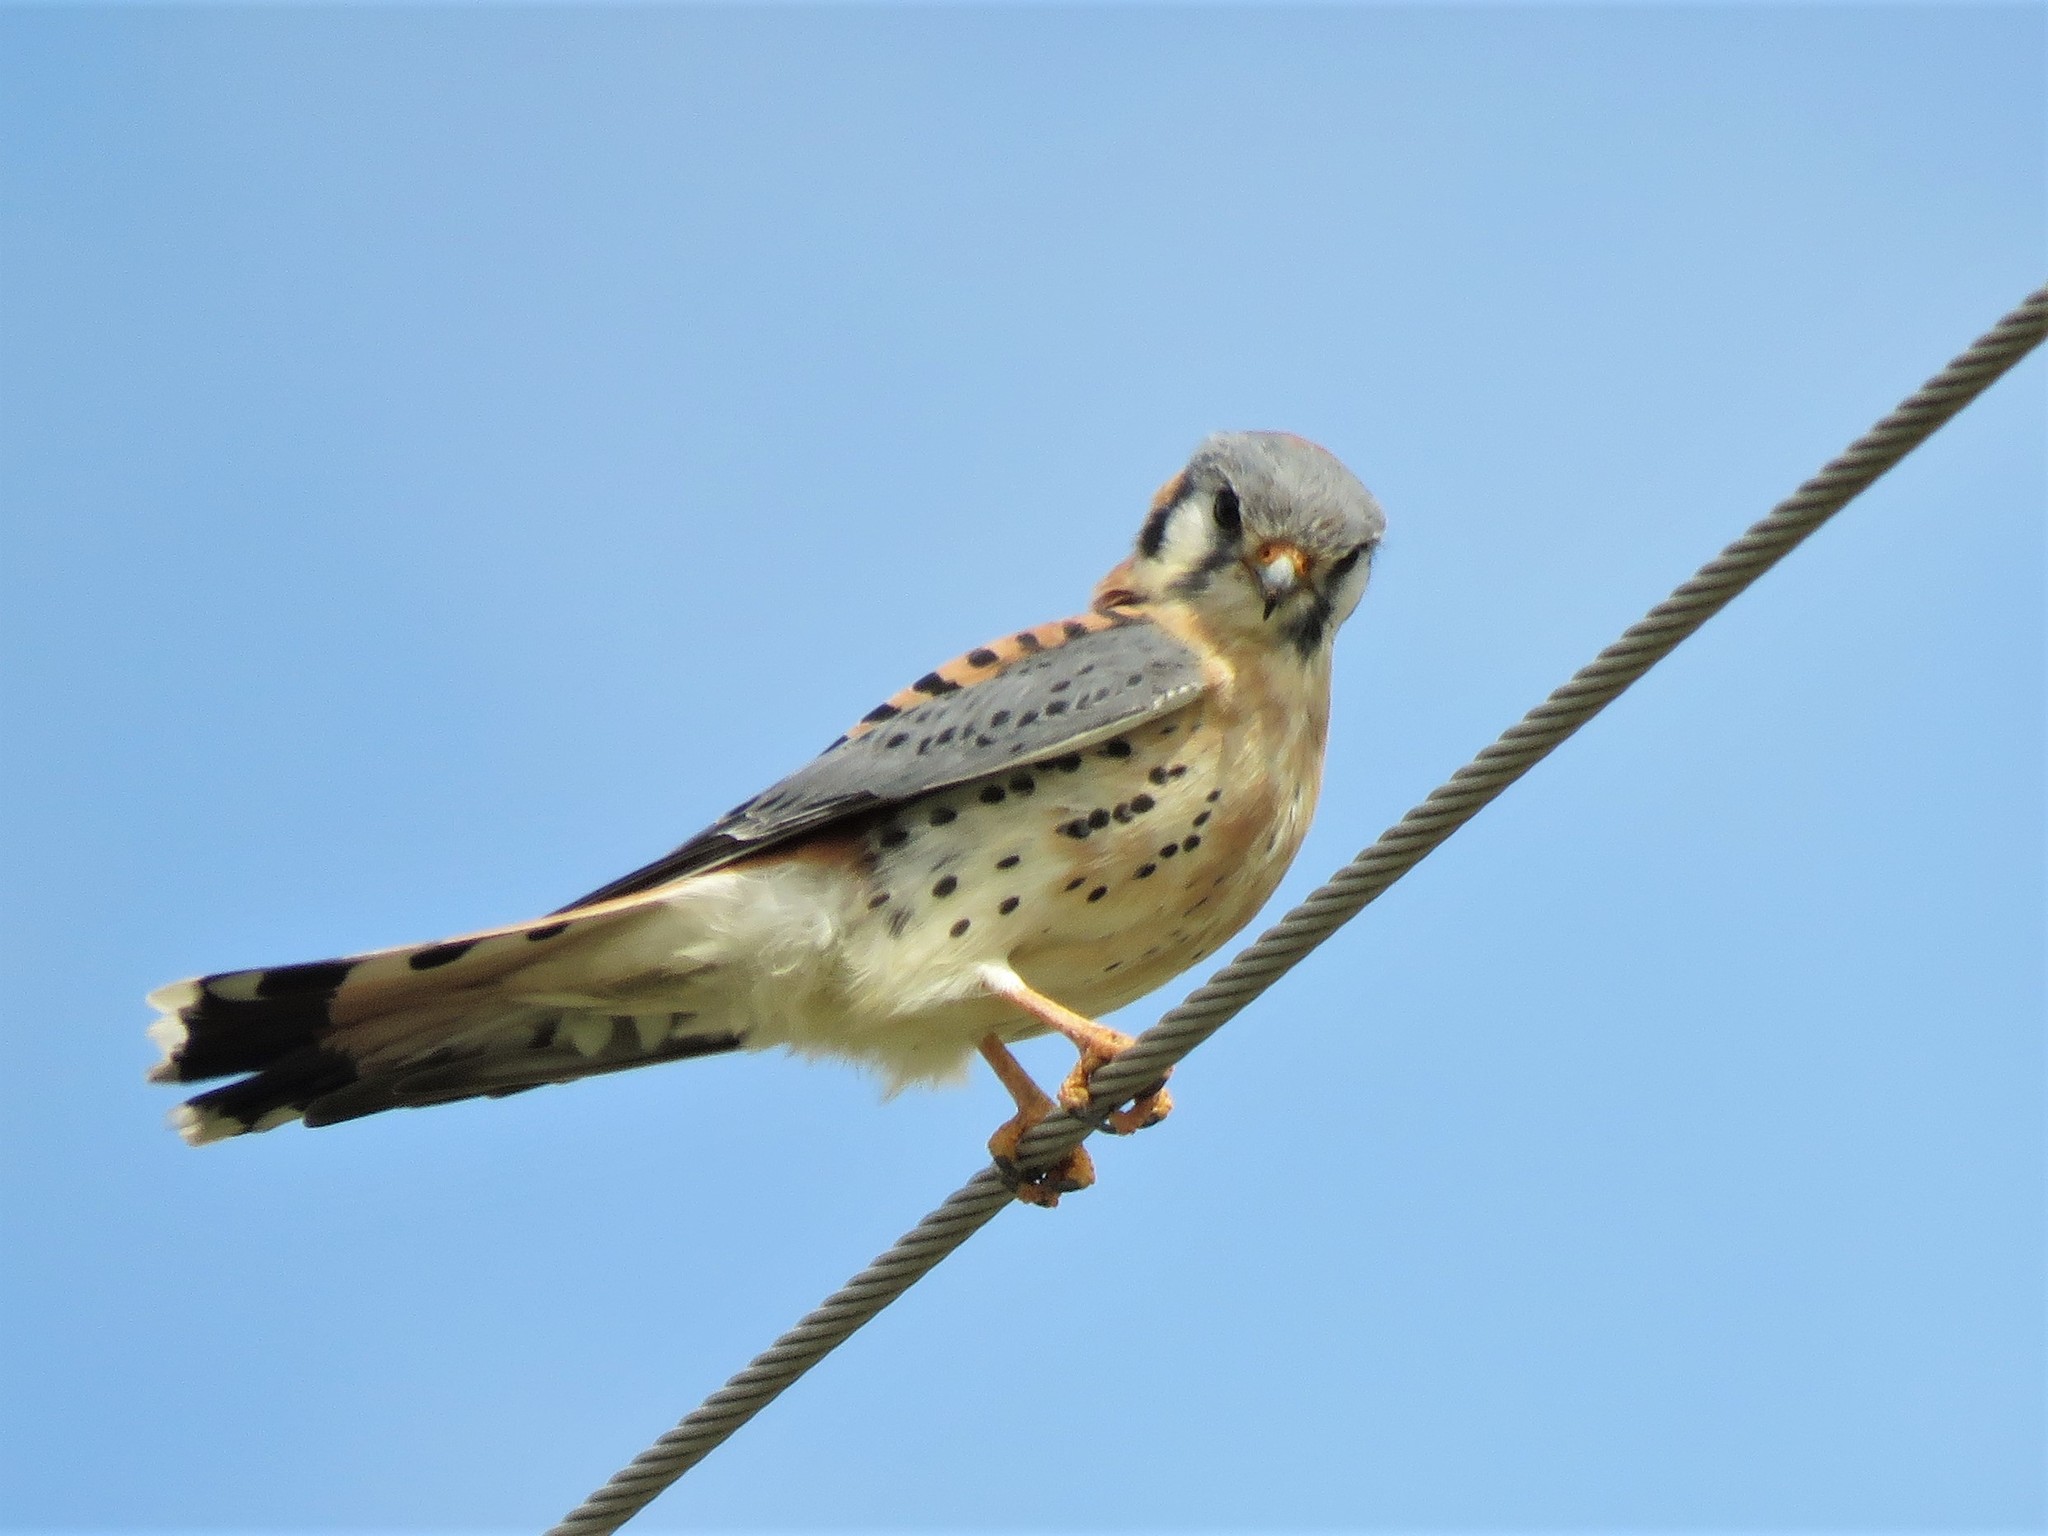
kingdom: Animalia
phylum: Chordata
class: Aves
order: Falconiformes
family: Falconidae
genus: Falco
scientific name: Falco sparverius
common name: American kestrel
